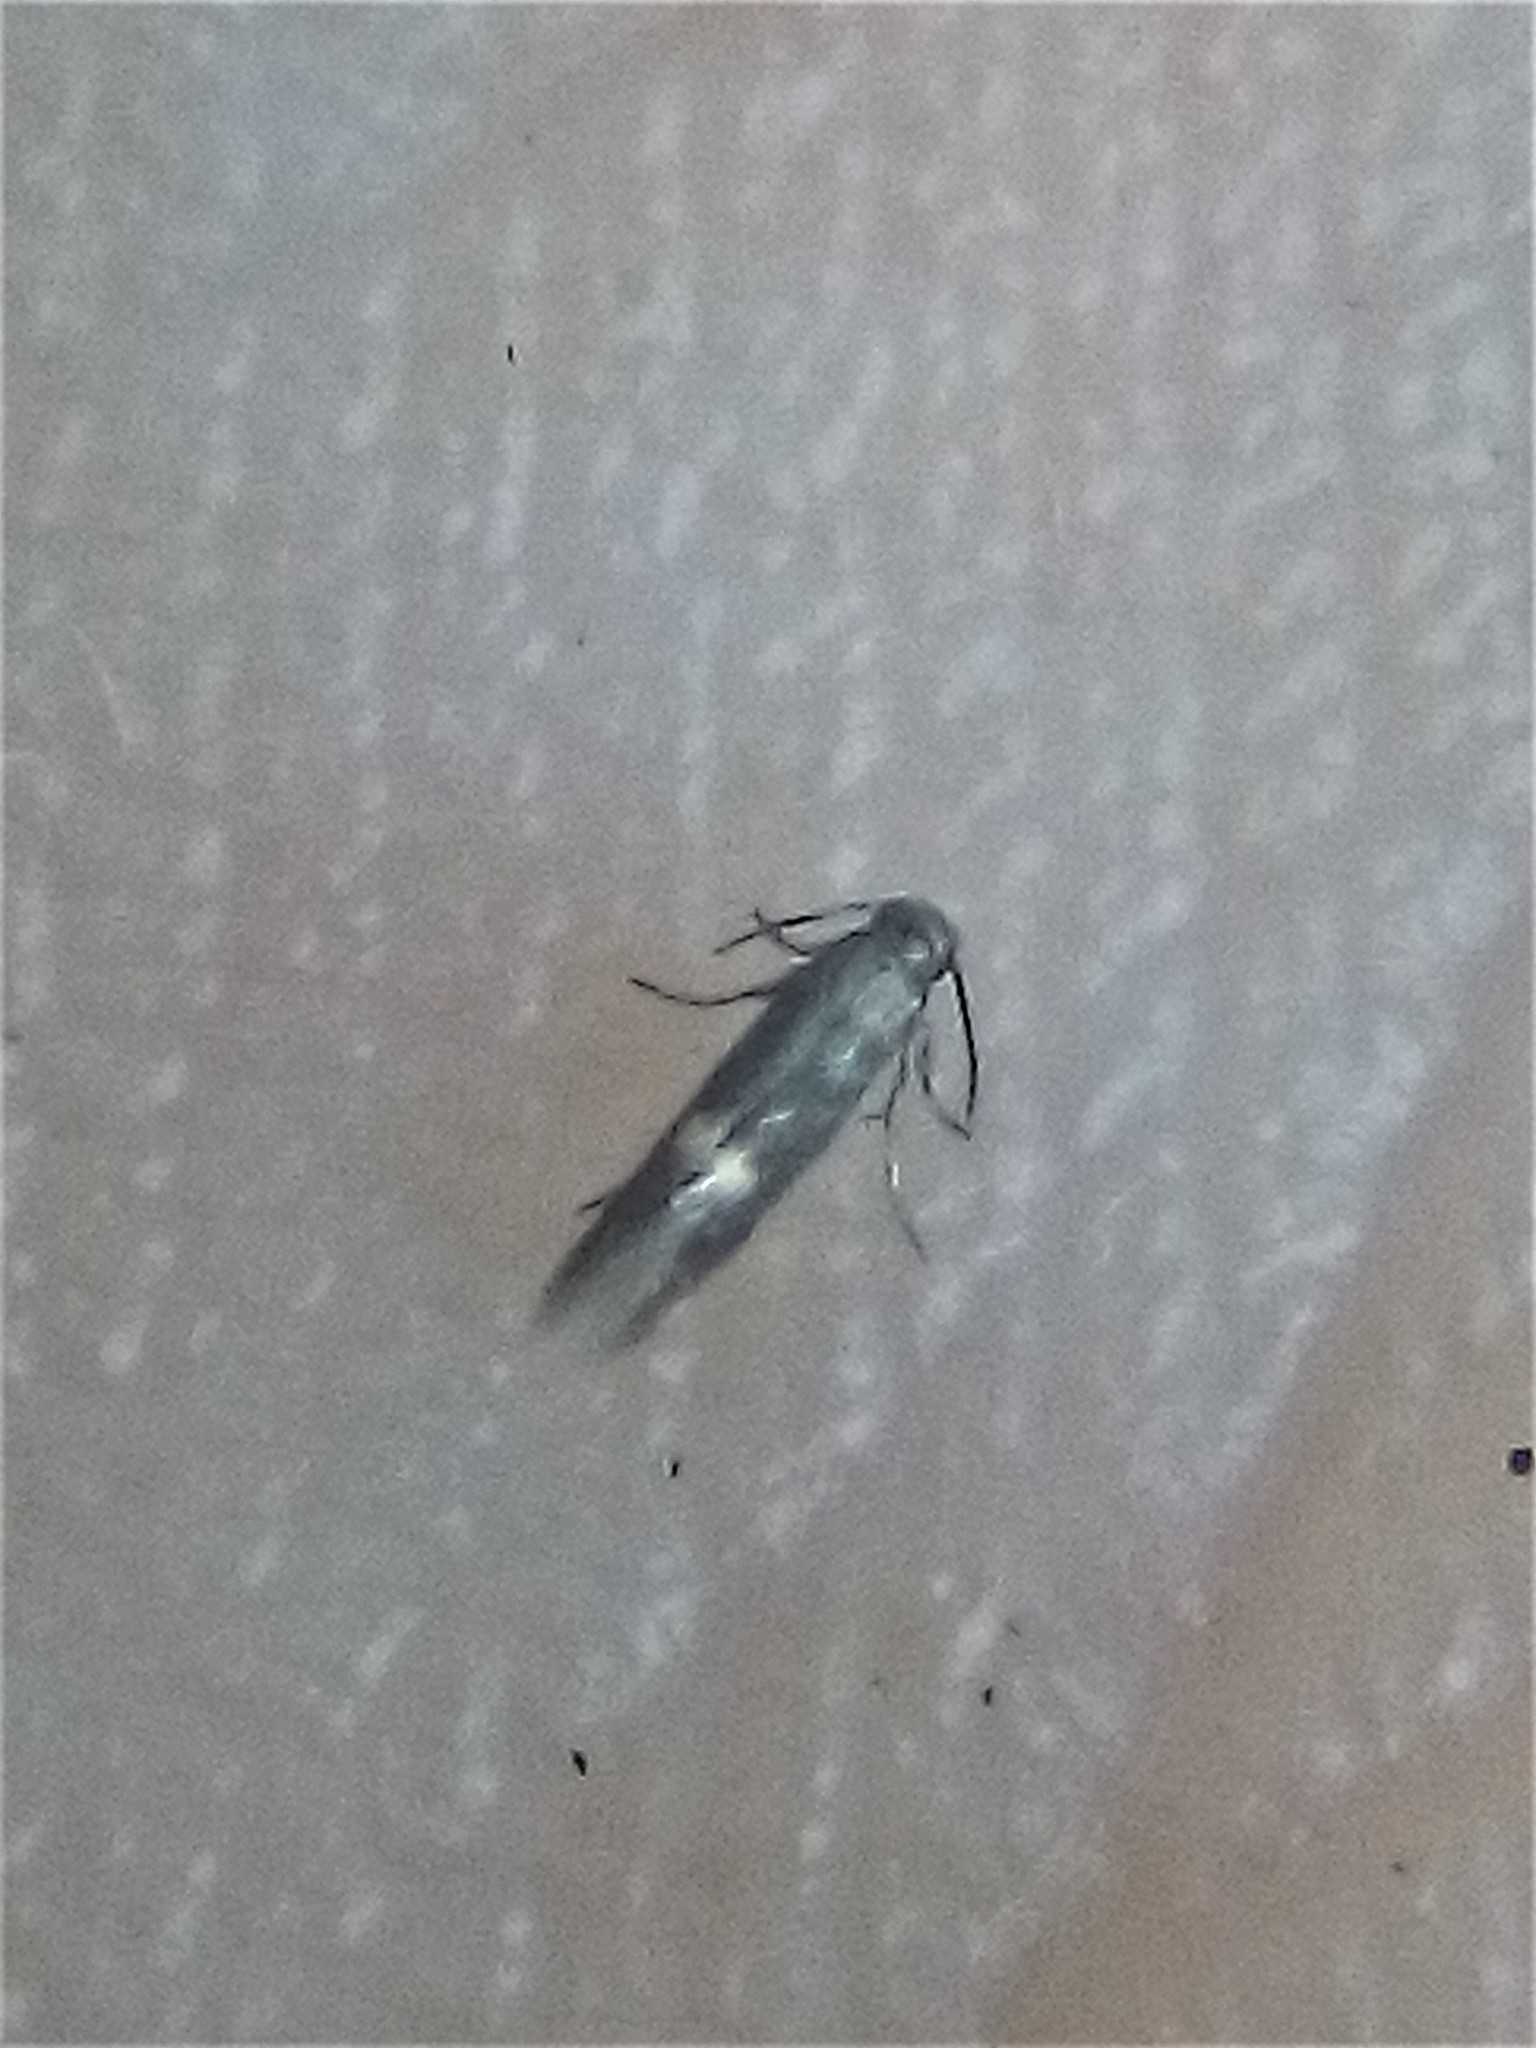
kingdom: Animalia
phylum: Arthropoda
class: Insecta
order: Lepidoptera
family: Heliozelidae
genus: Heliozela
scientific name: Heliozela catoptrias
